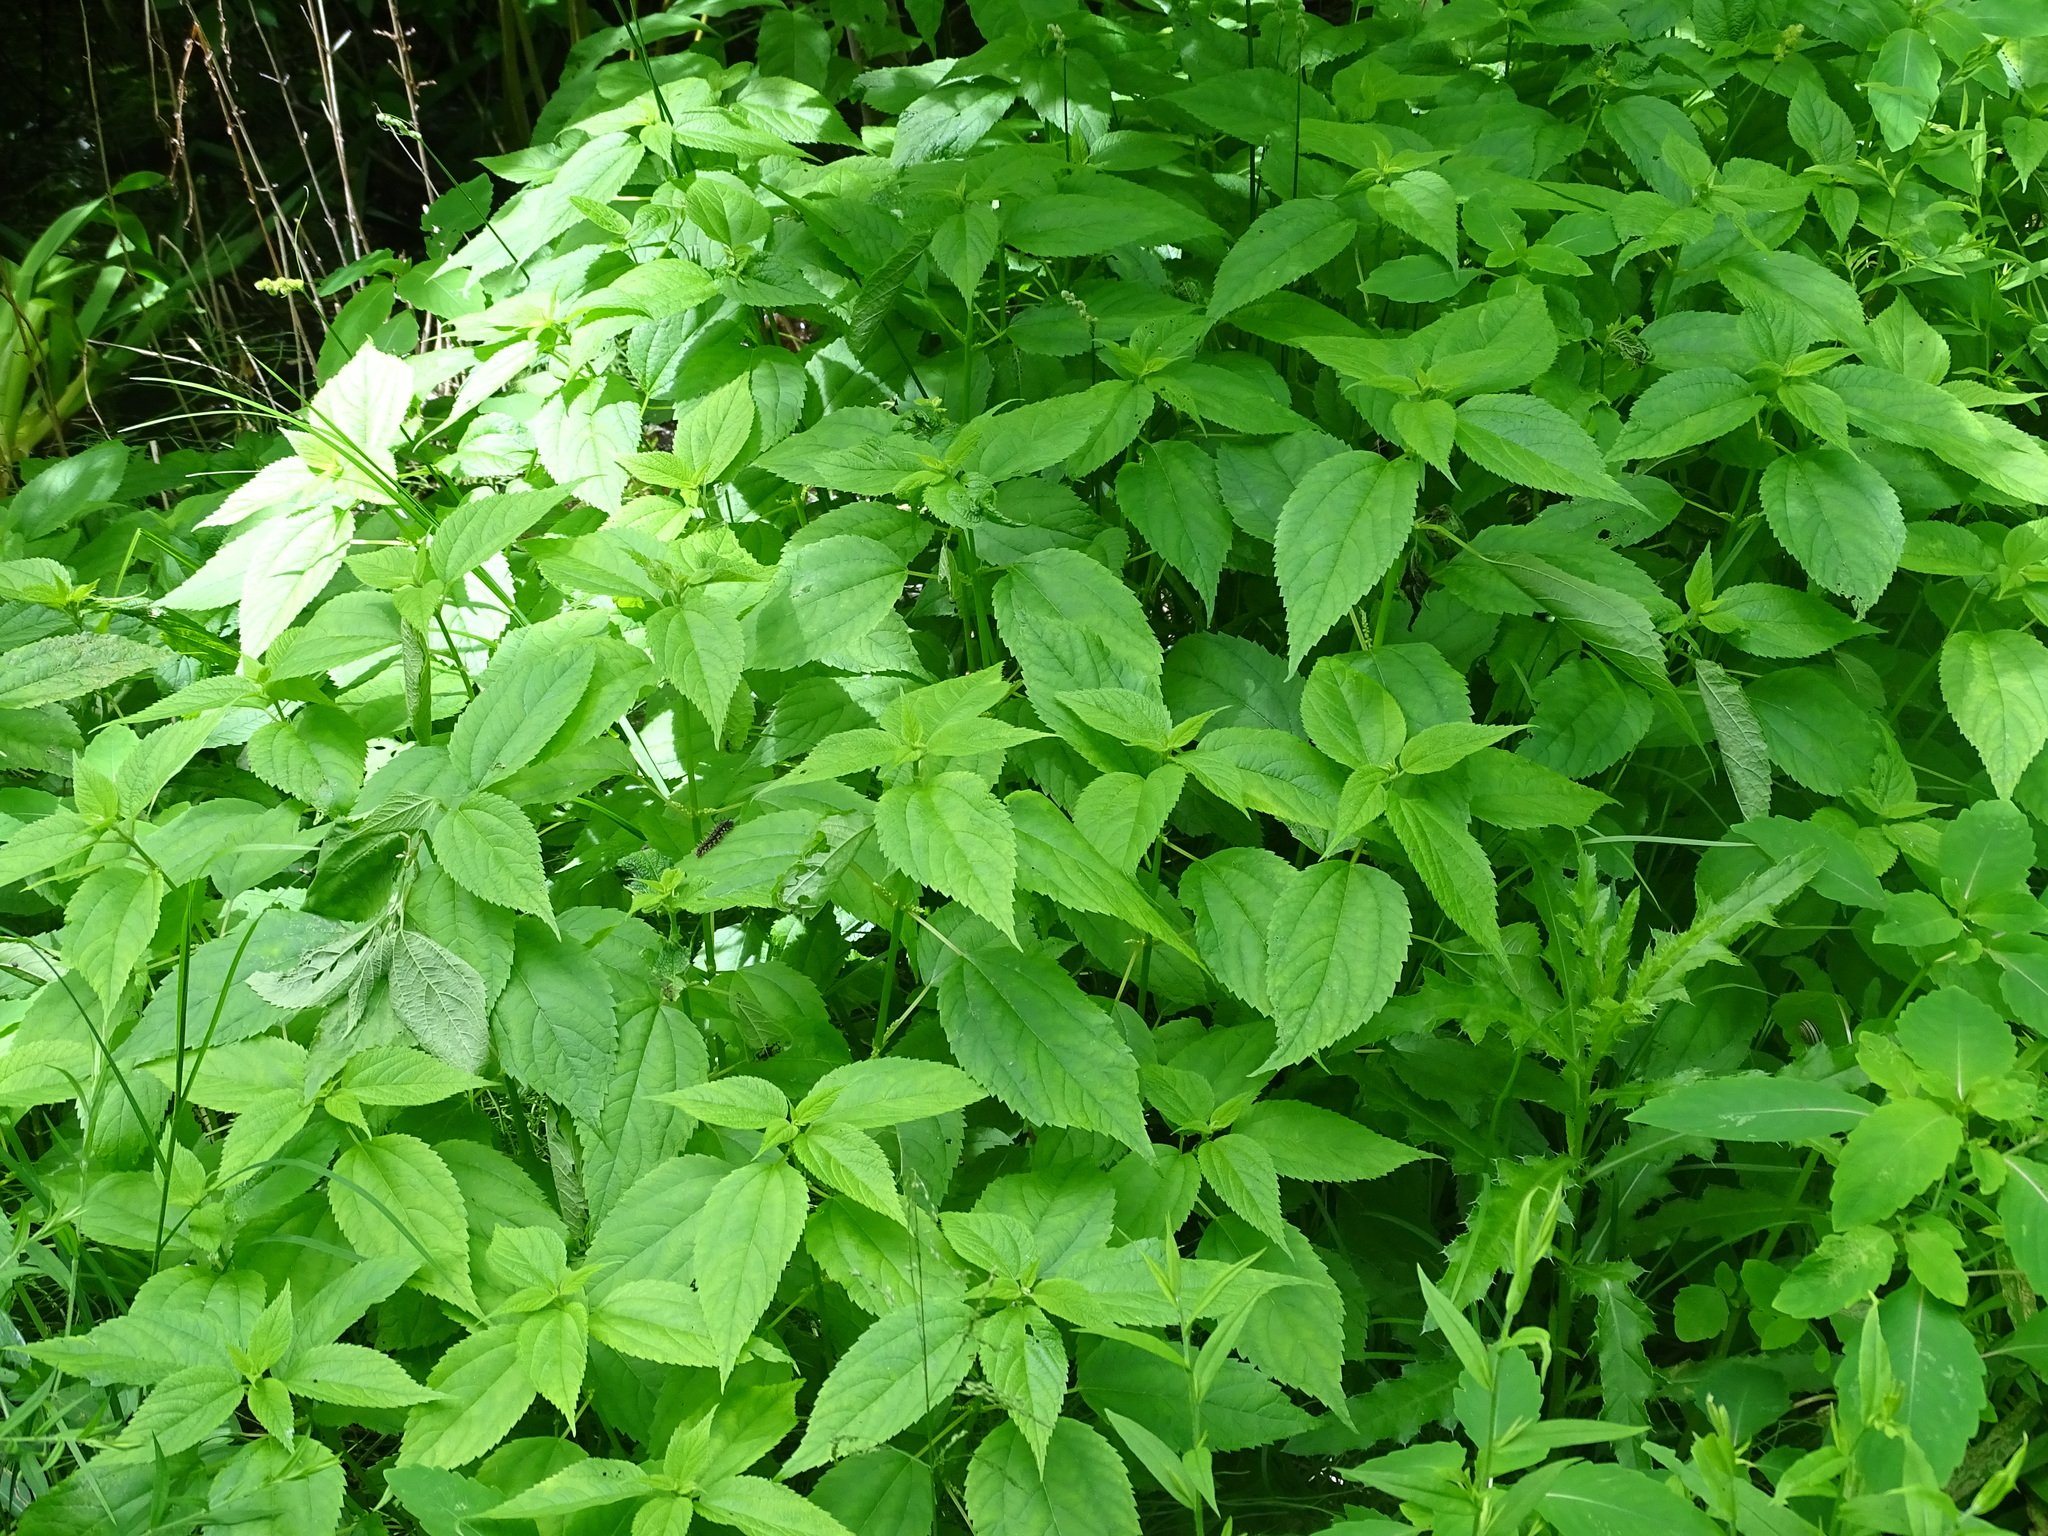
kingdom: Plantae
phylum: Tracheophyta
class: Magnoliopsida
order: Rosales
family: Urticaceae
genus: Boehmeria
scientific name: Boehmeria cylindrica
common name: Bog-hemp
